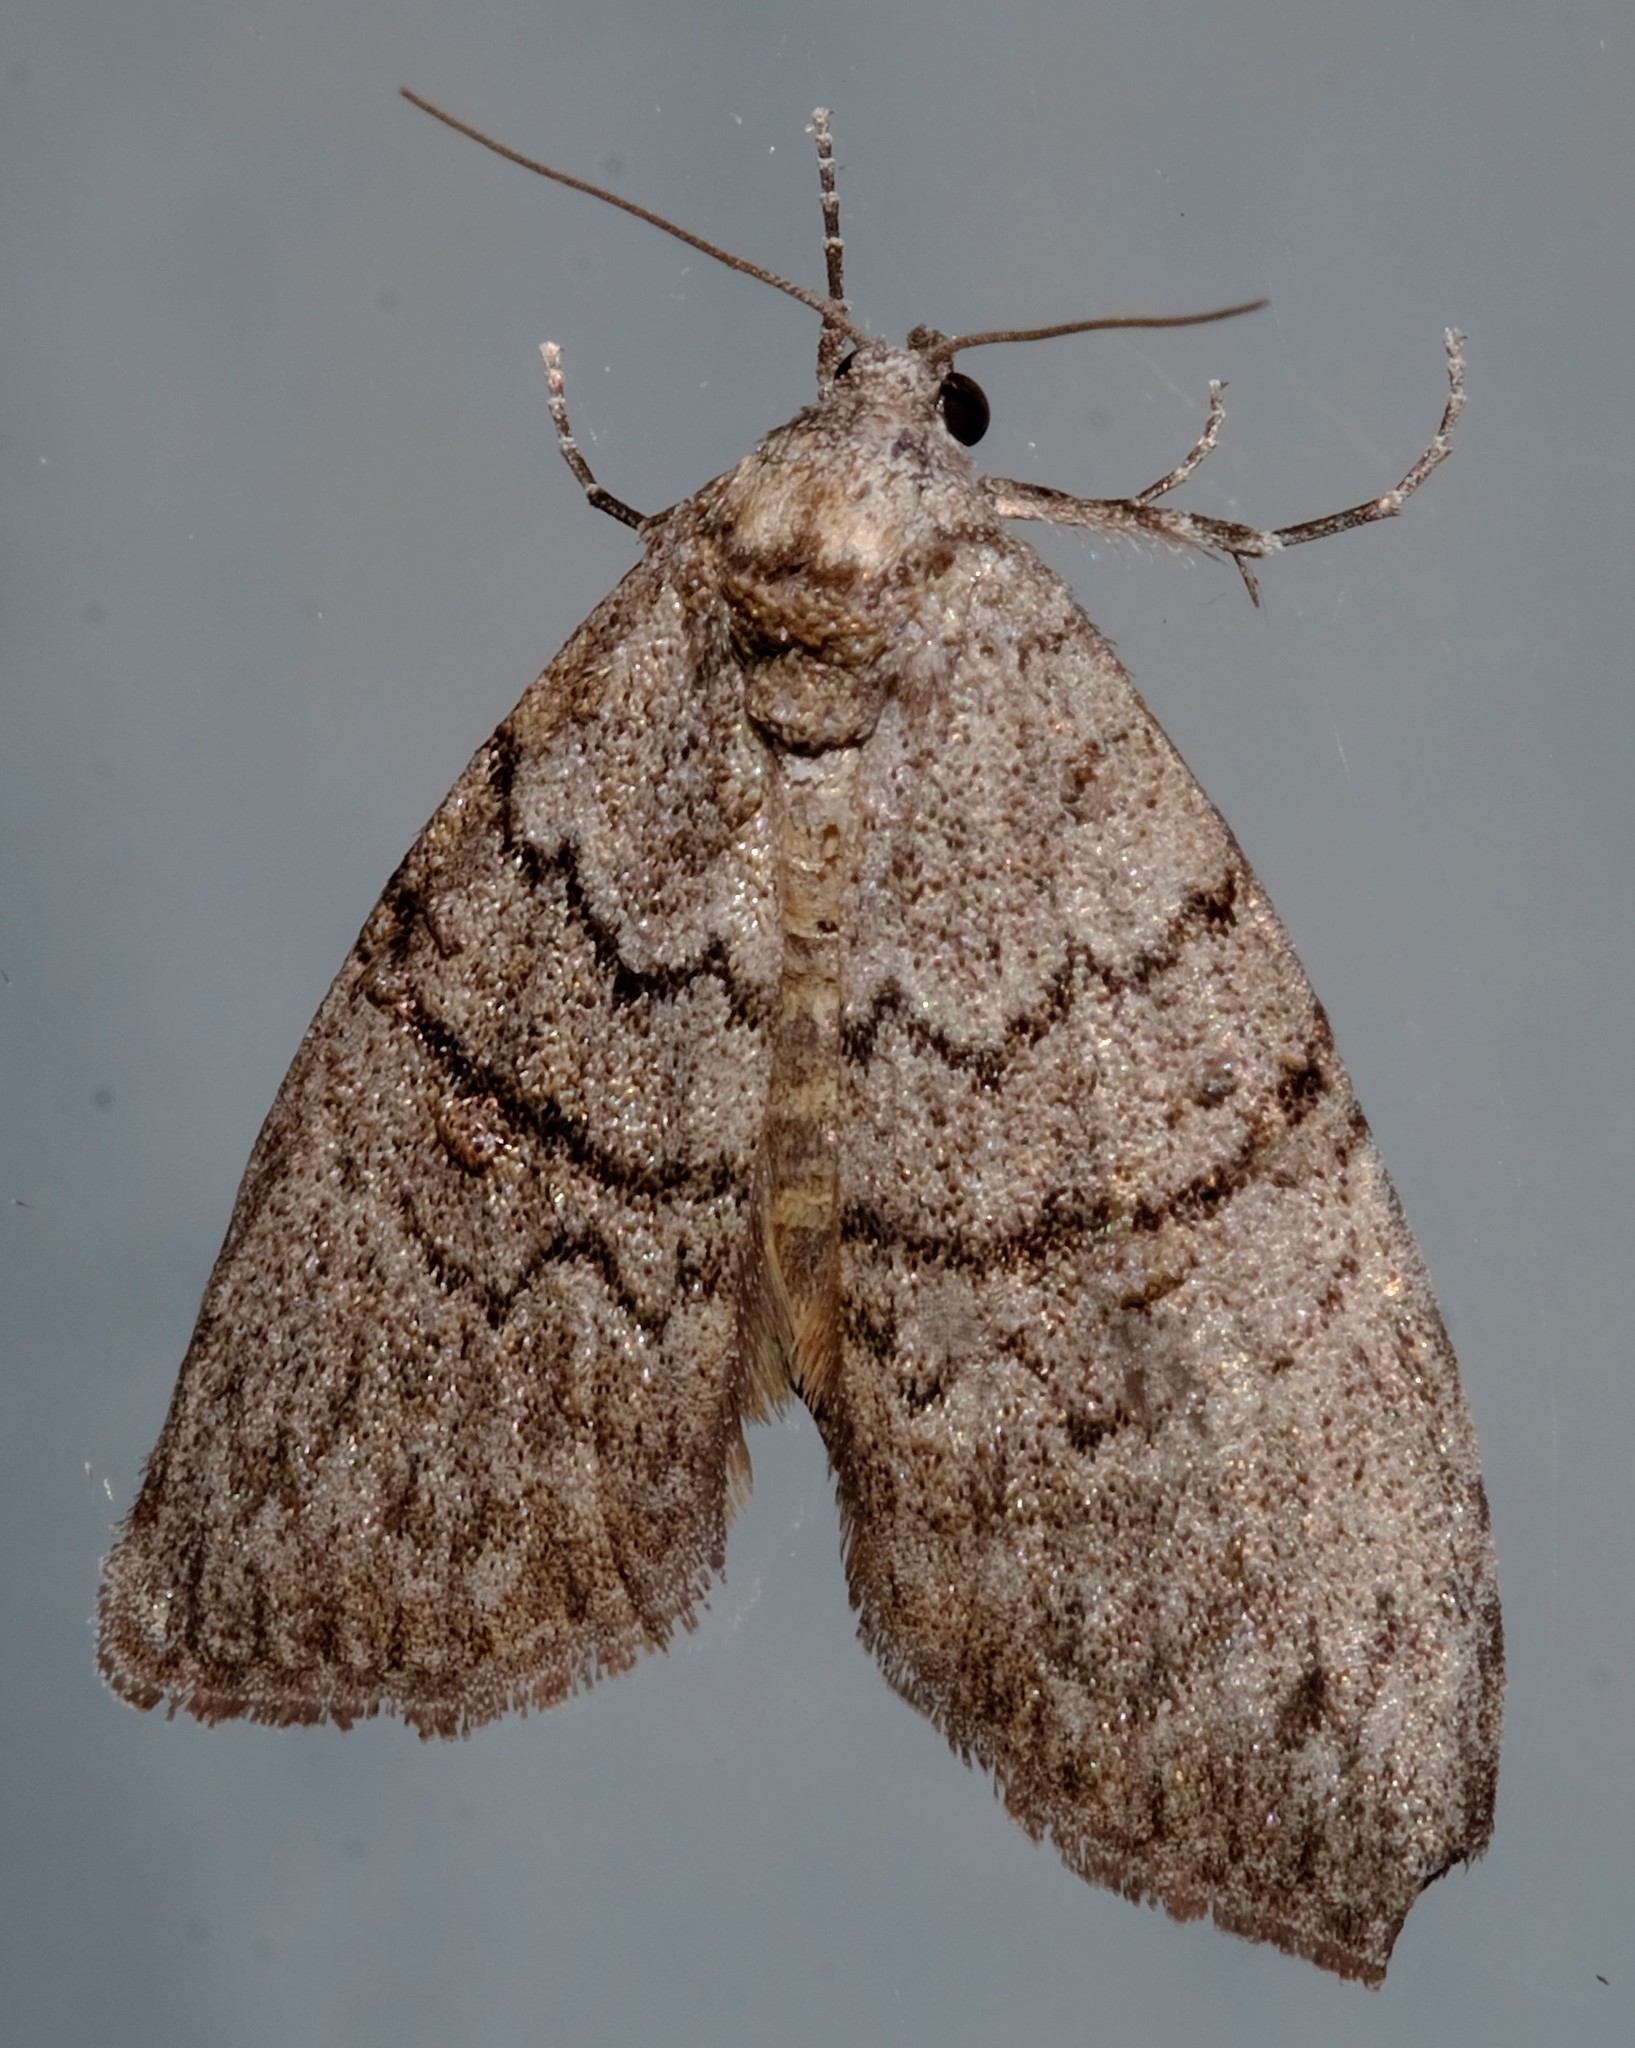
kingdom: Animalia
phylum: Arthropoda
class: Insecta
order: Lepidoptera
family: Nolidae
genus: Uraba
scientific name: Uraba lugens
